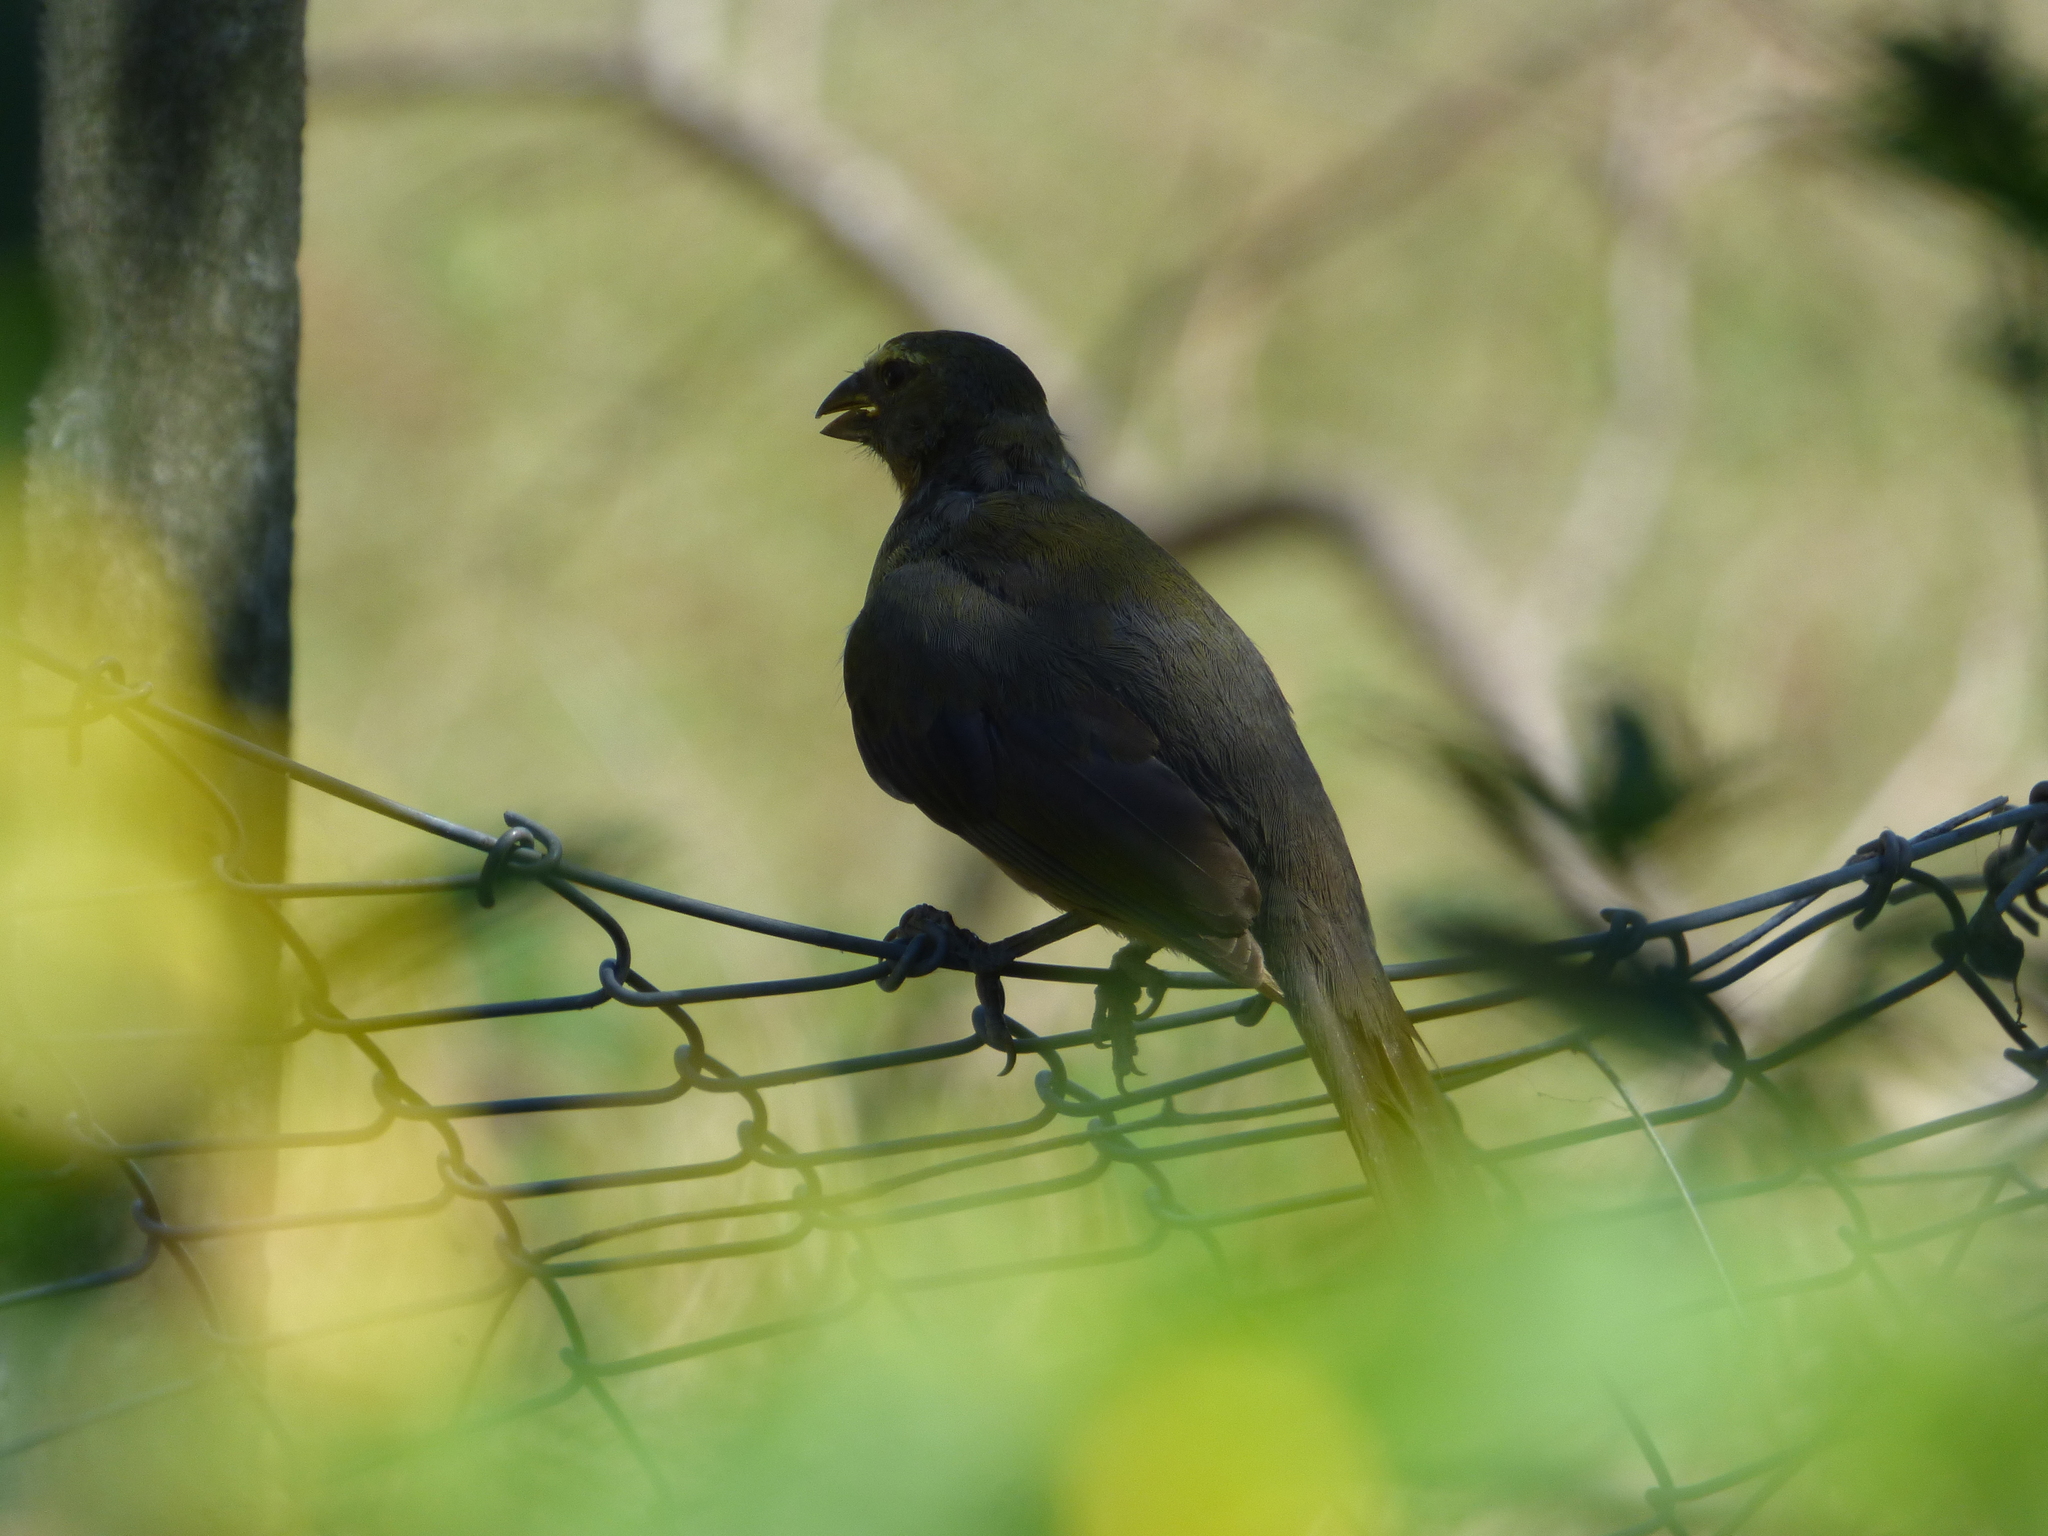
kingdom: Animalia
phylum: Chordata
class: Aves
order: Passeriformes
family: Thraupidae
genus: Saltator
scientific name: Saltator coerulescens
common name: Grayish saltator
